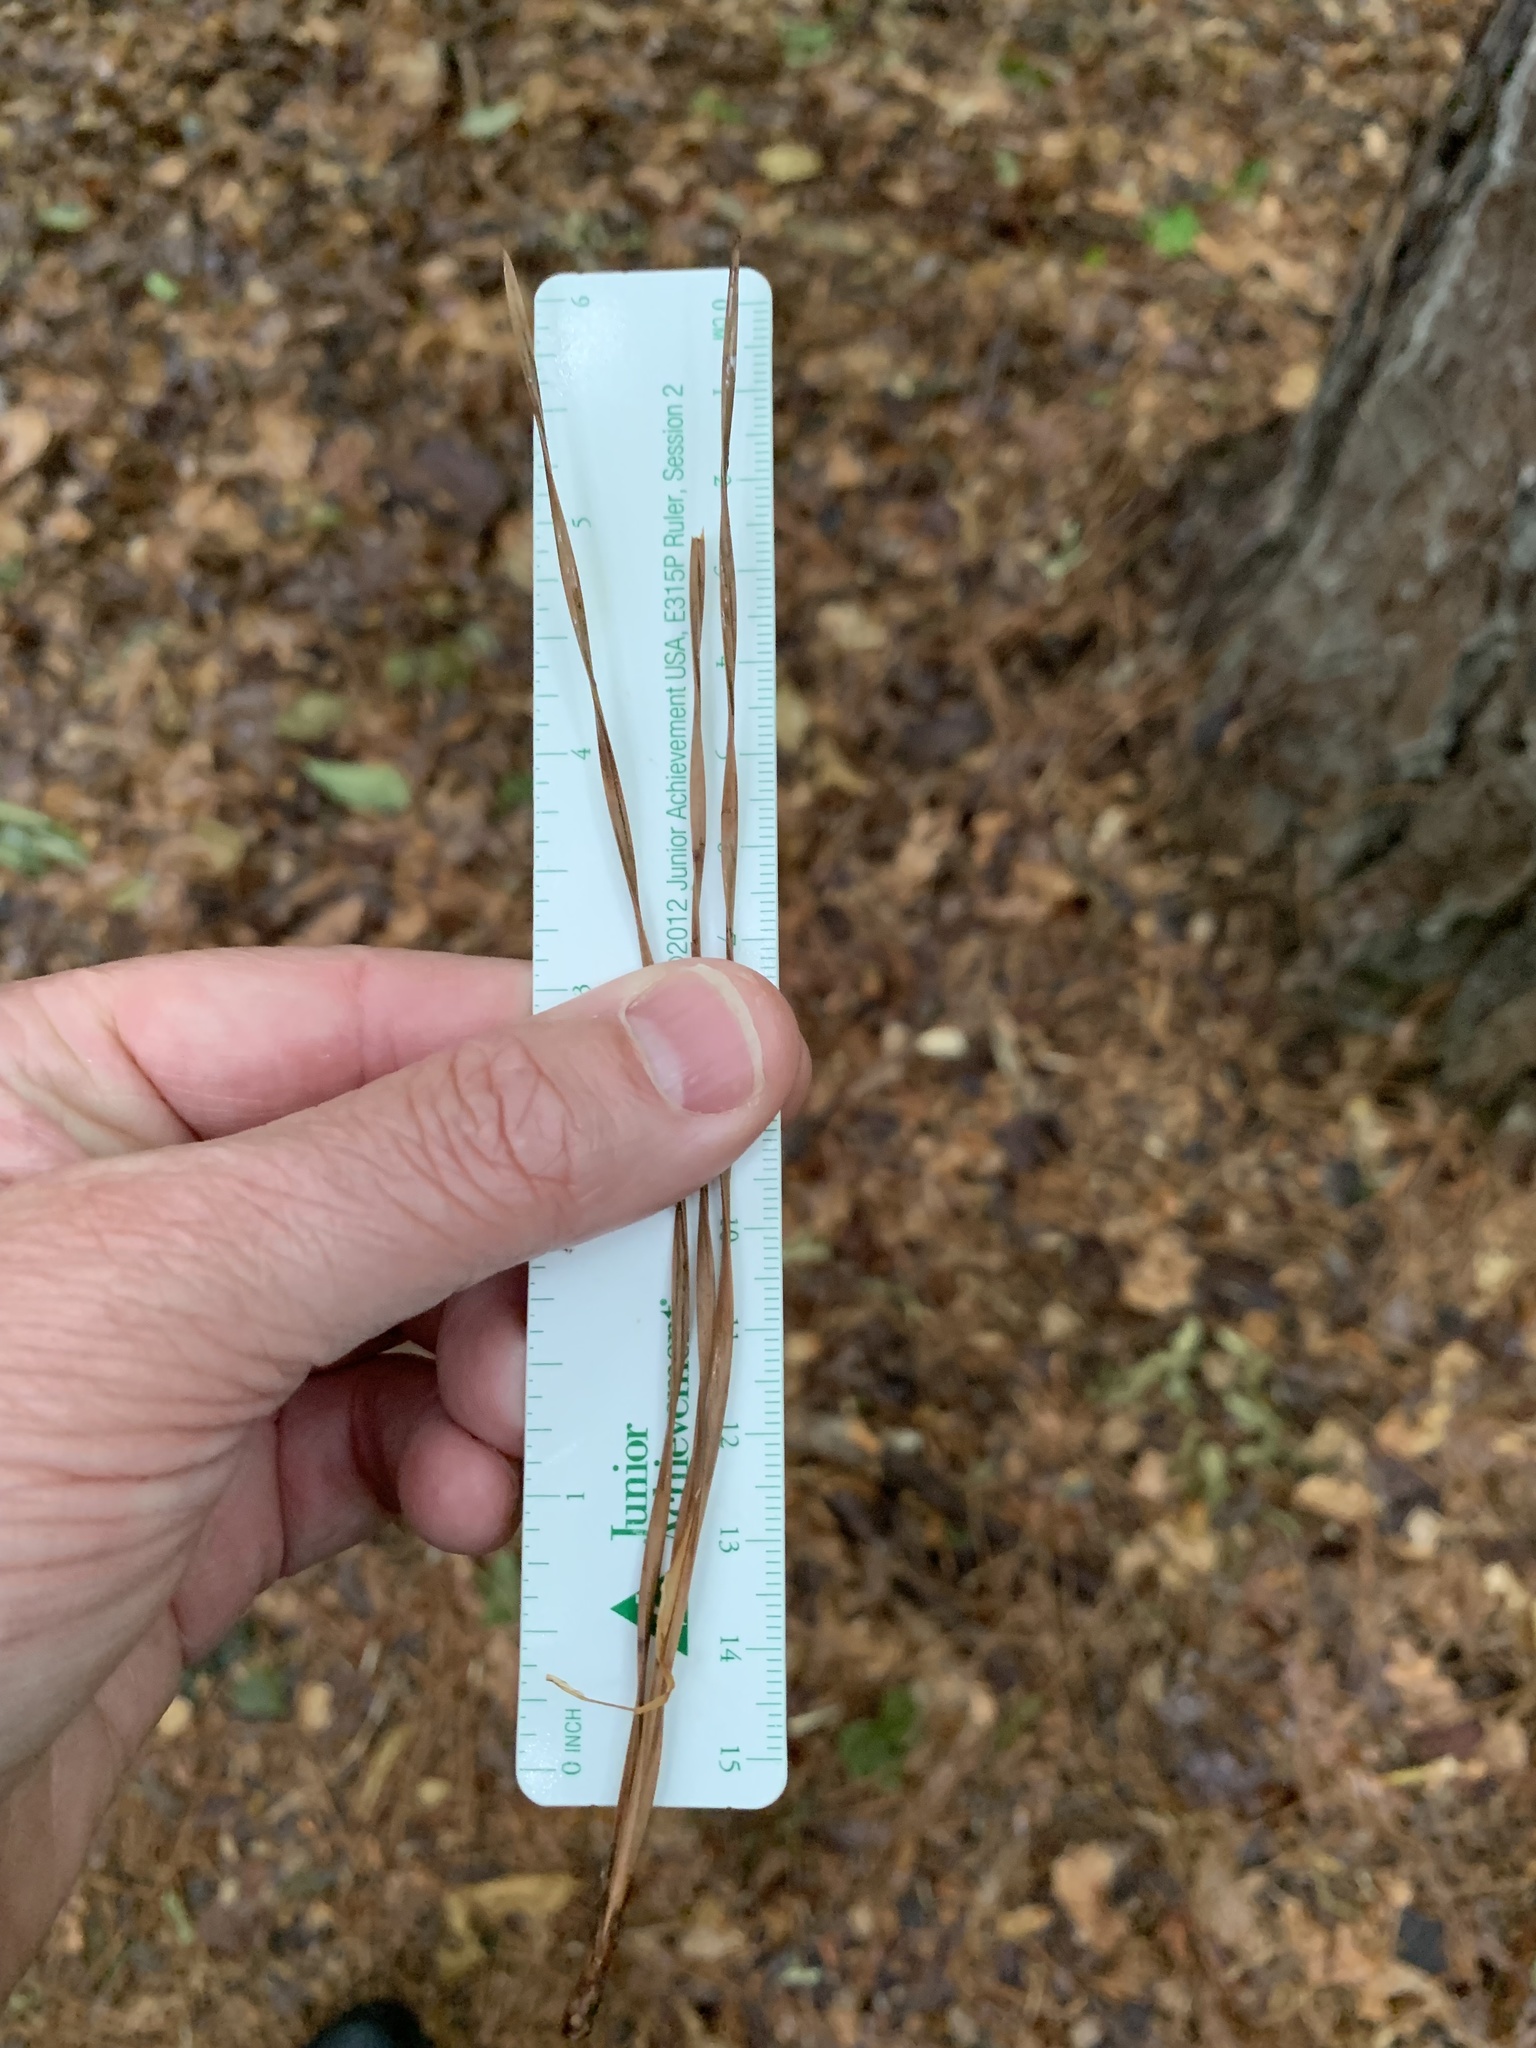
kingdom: Plantae
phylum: Tracheophyta
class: Pinopsida
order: Pinales
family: Pinaceae
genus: Pinus
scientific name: Pinus taeda
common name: Loblolly pine
